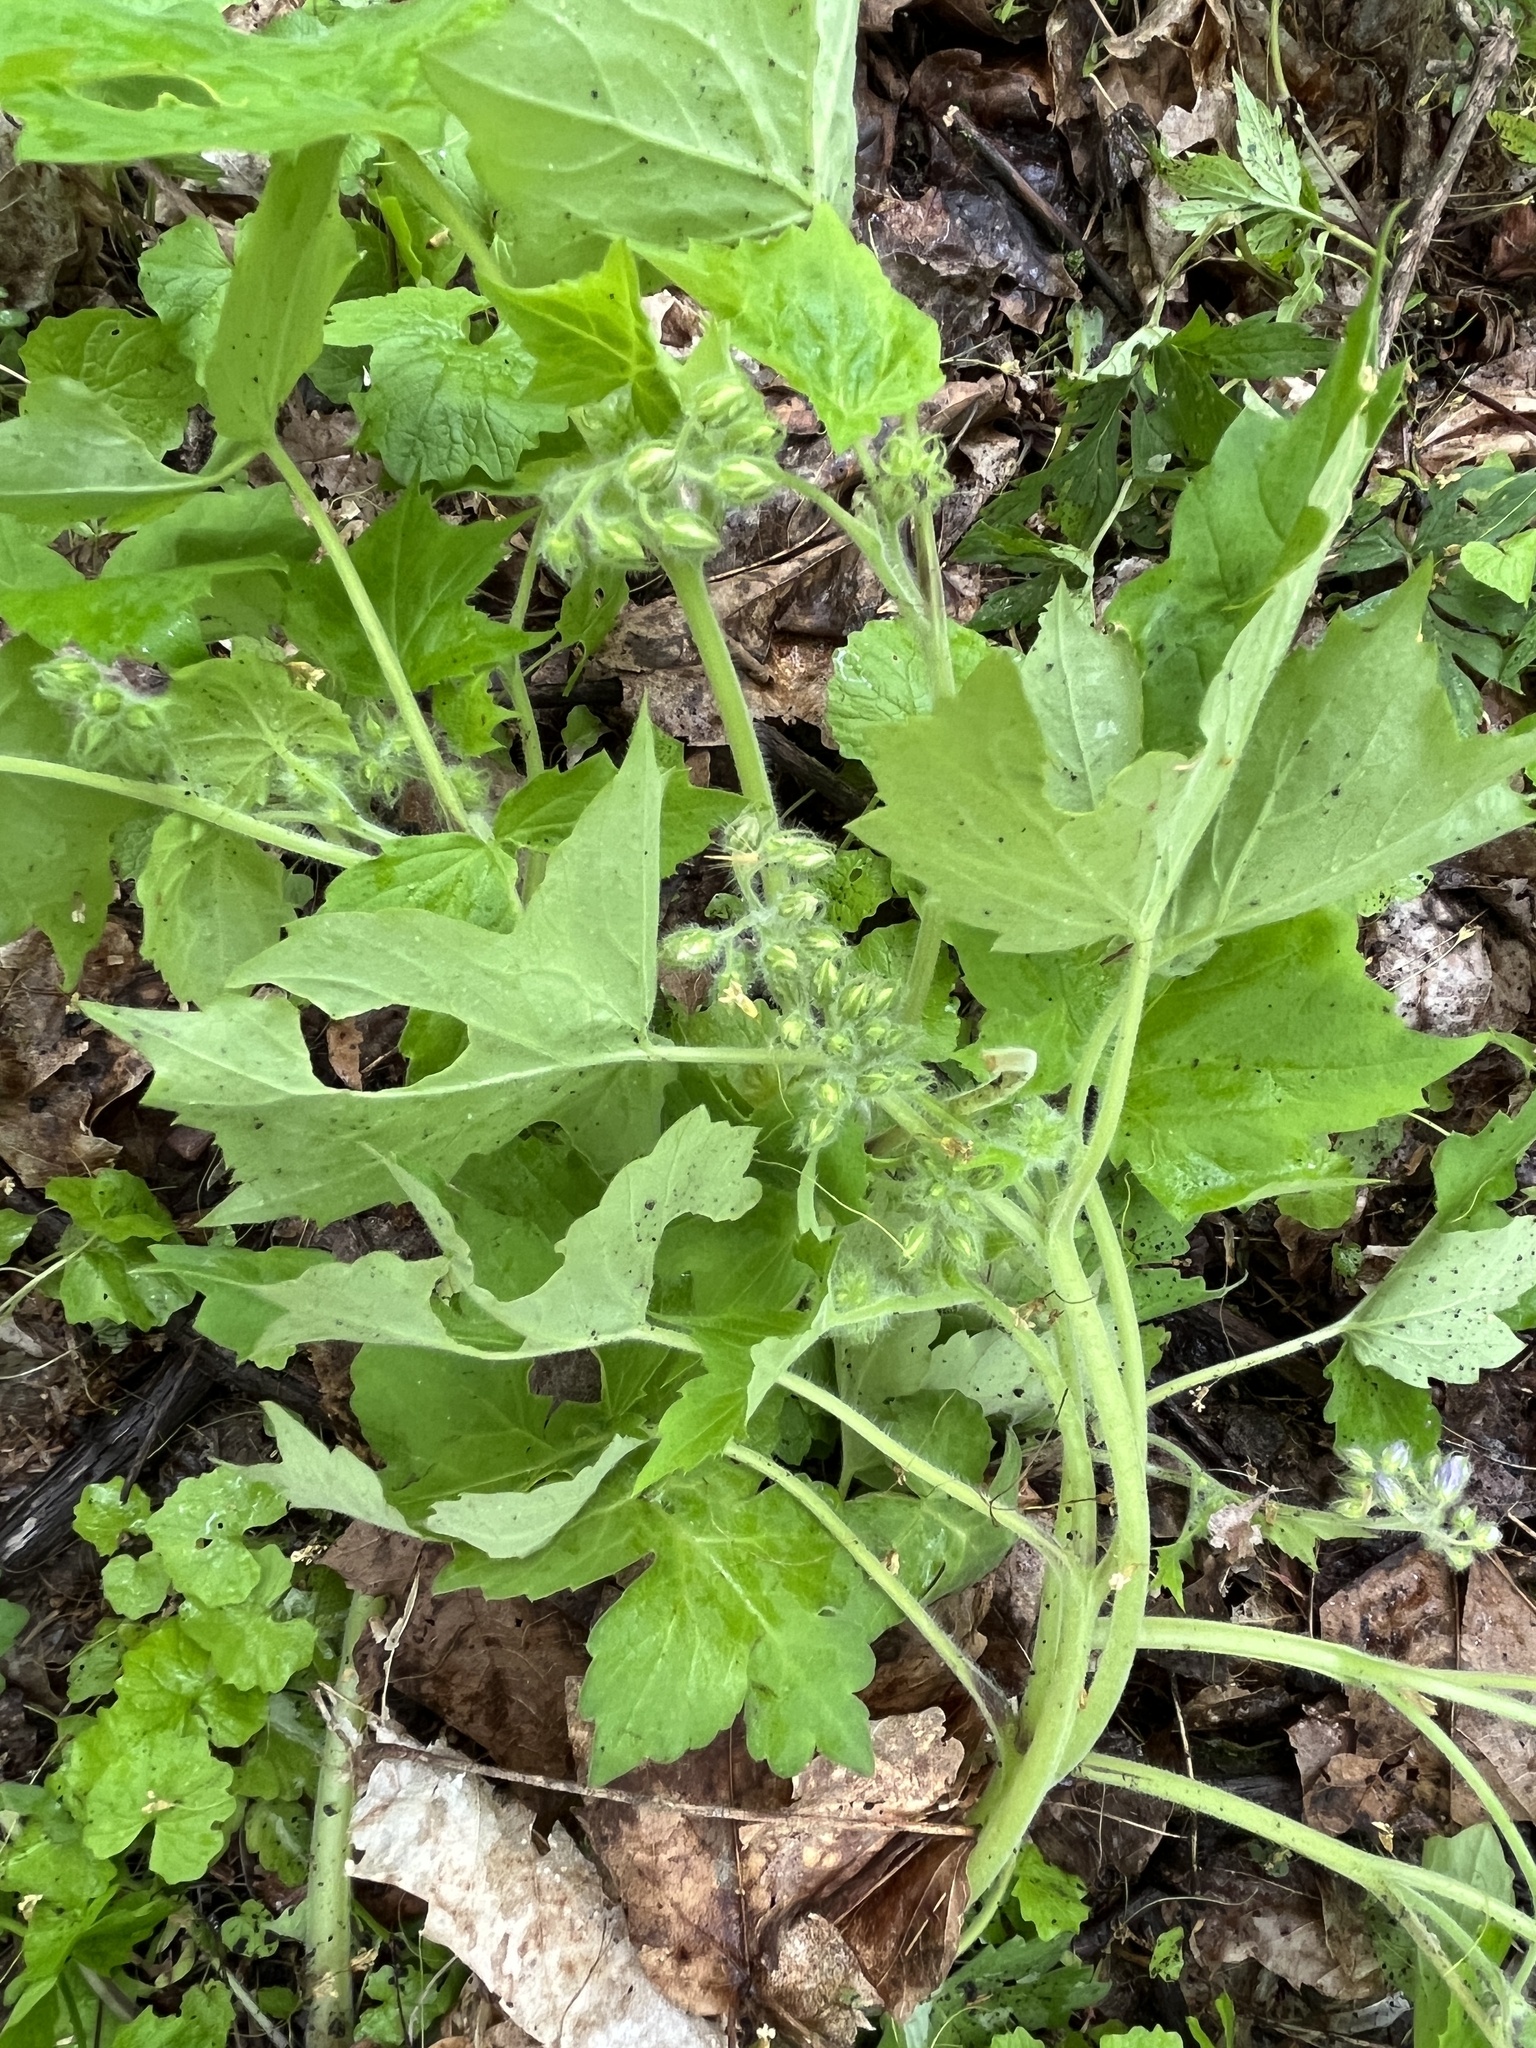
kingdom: Plantae
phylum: Tracheophyta
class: Magnoliopsida
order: Boraginales
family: Hydrophyllaceae
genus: Hydrophyllum
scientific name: Hydrophyllum appendiculatum
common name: Appendaged waterleaf
